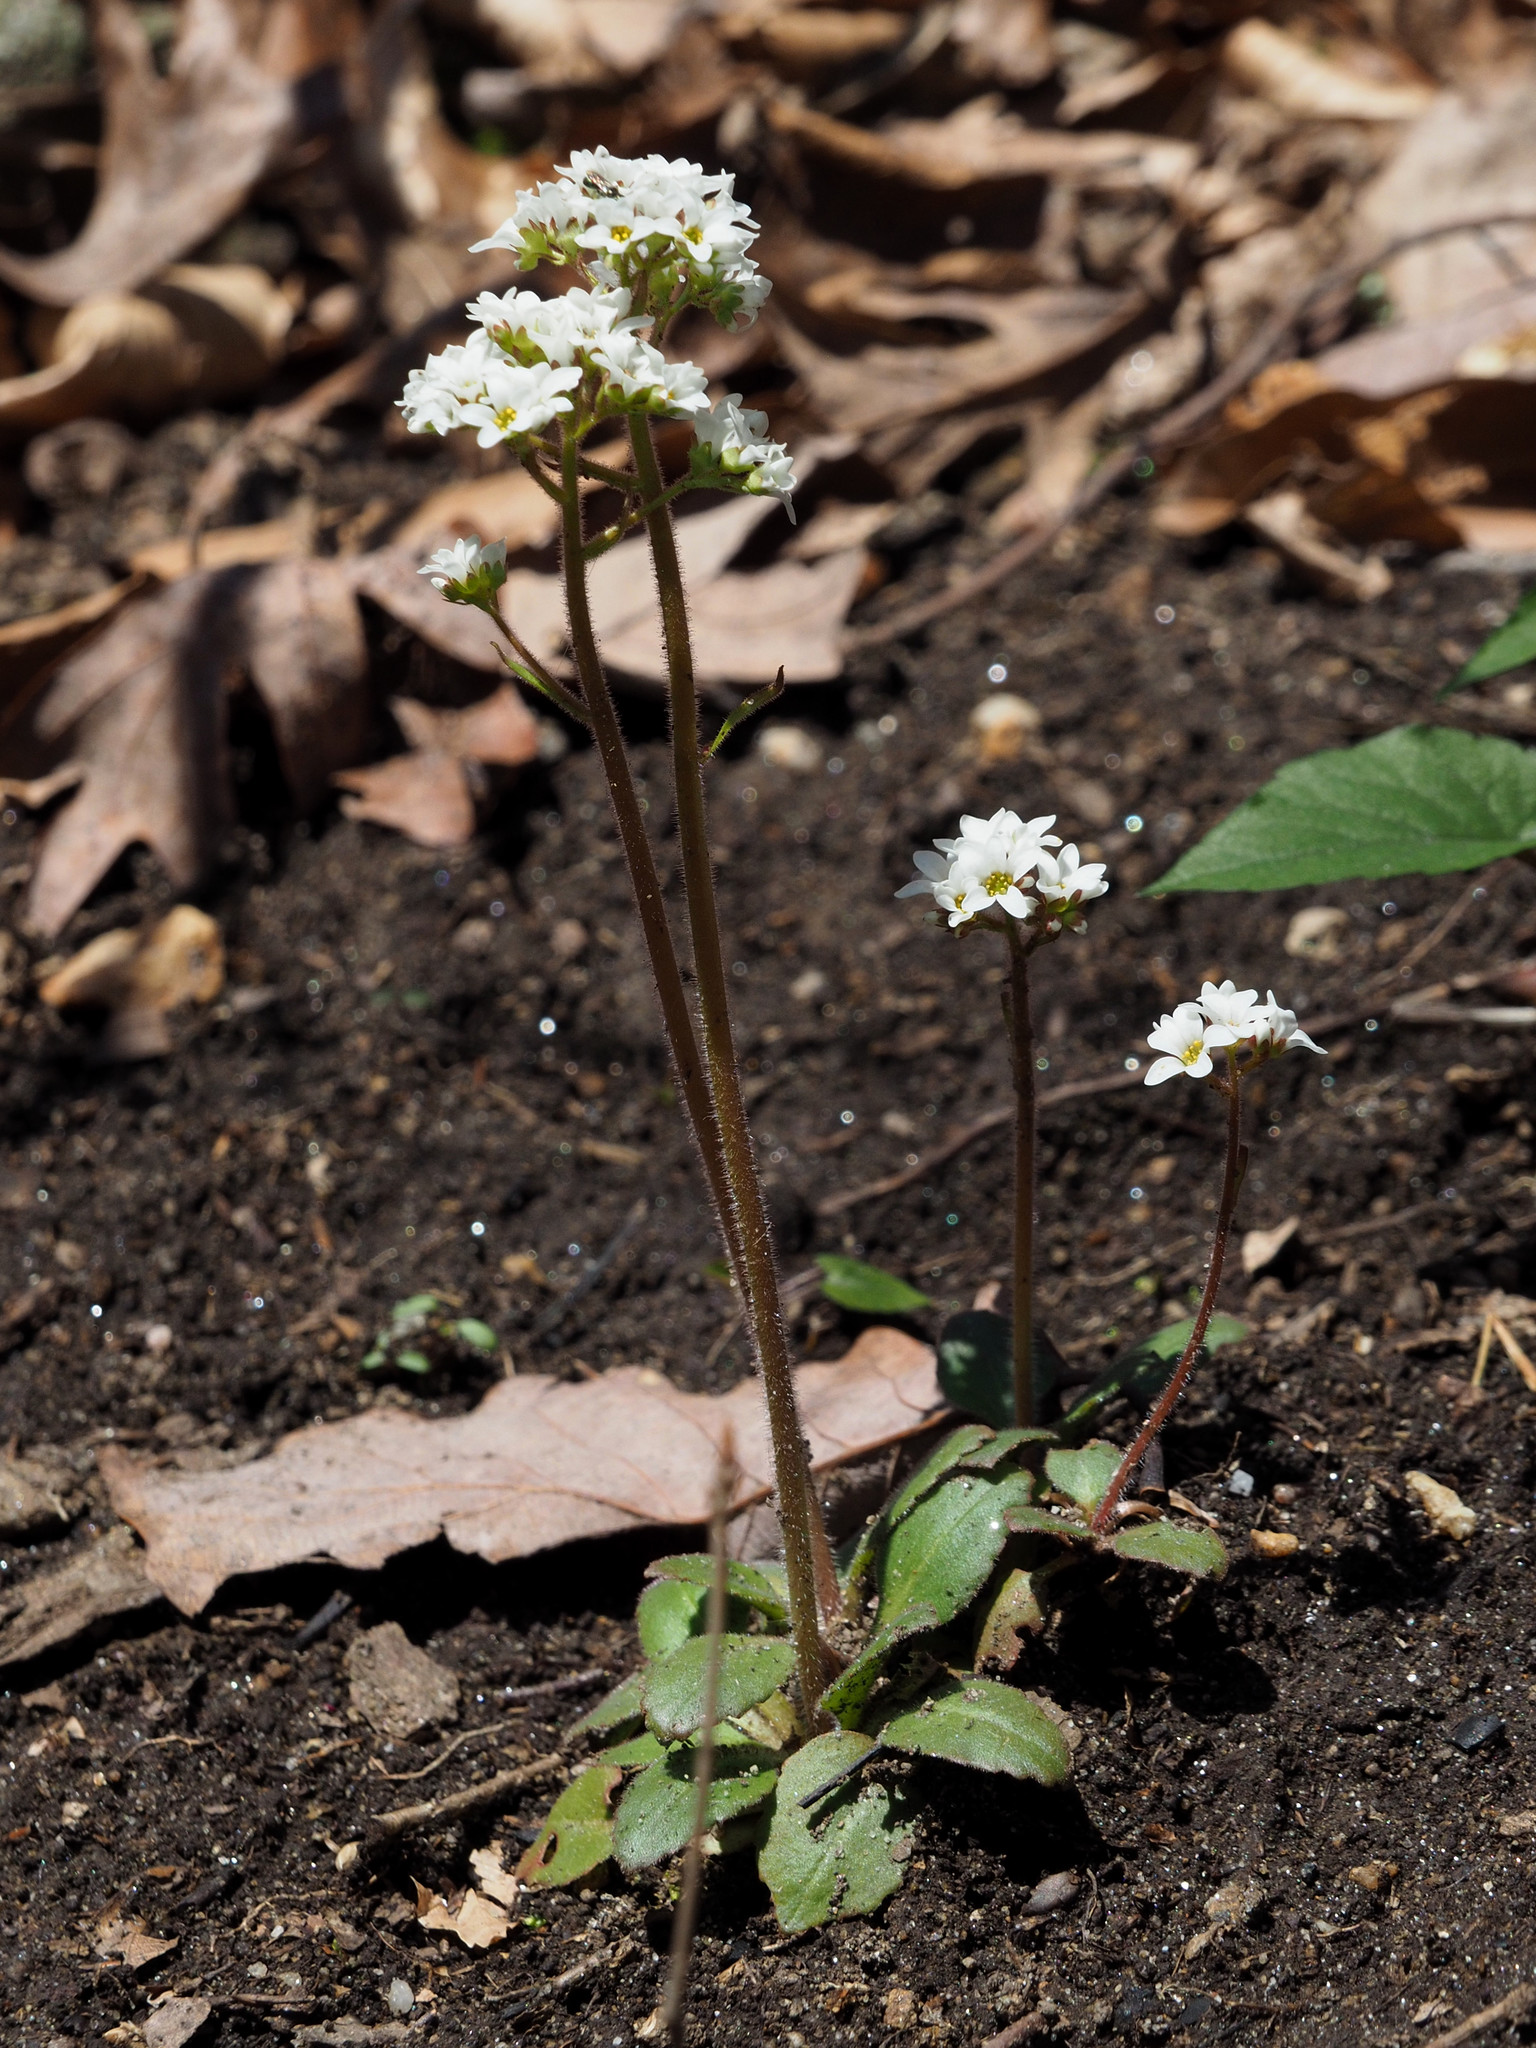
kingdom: Plantae
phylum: Tracheophyta
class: Magnoliopsida
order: Saxifragales
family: Saxifragaceae
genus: Micranthes
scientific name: Micranthes virginiensis
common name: Early saxifrage
